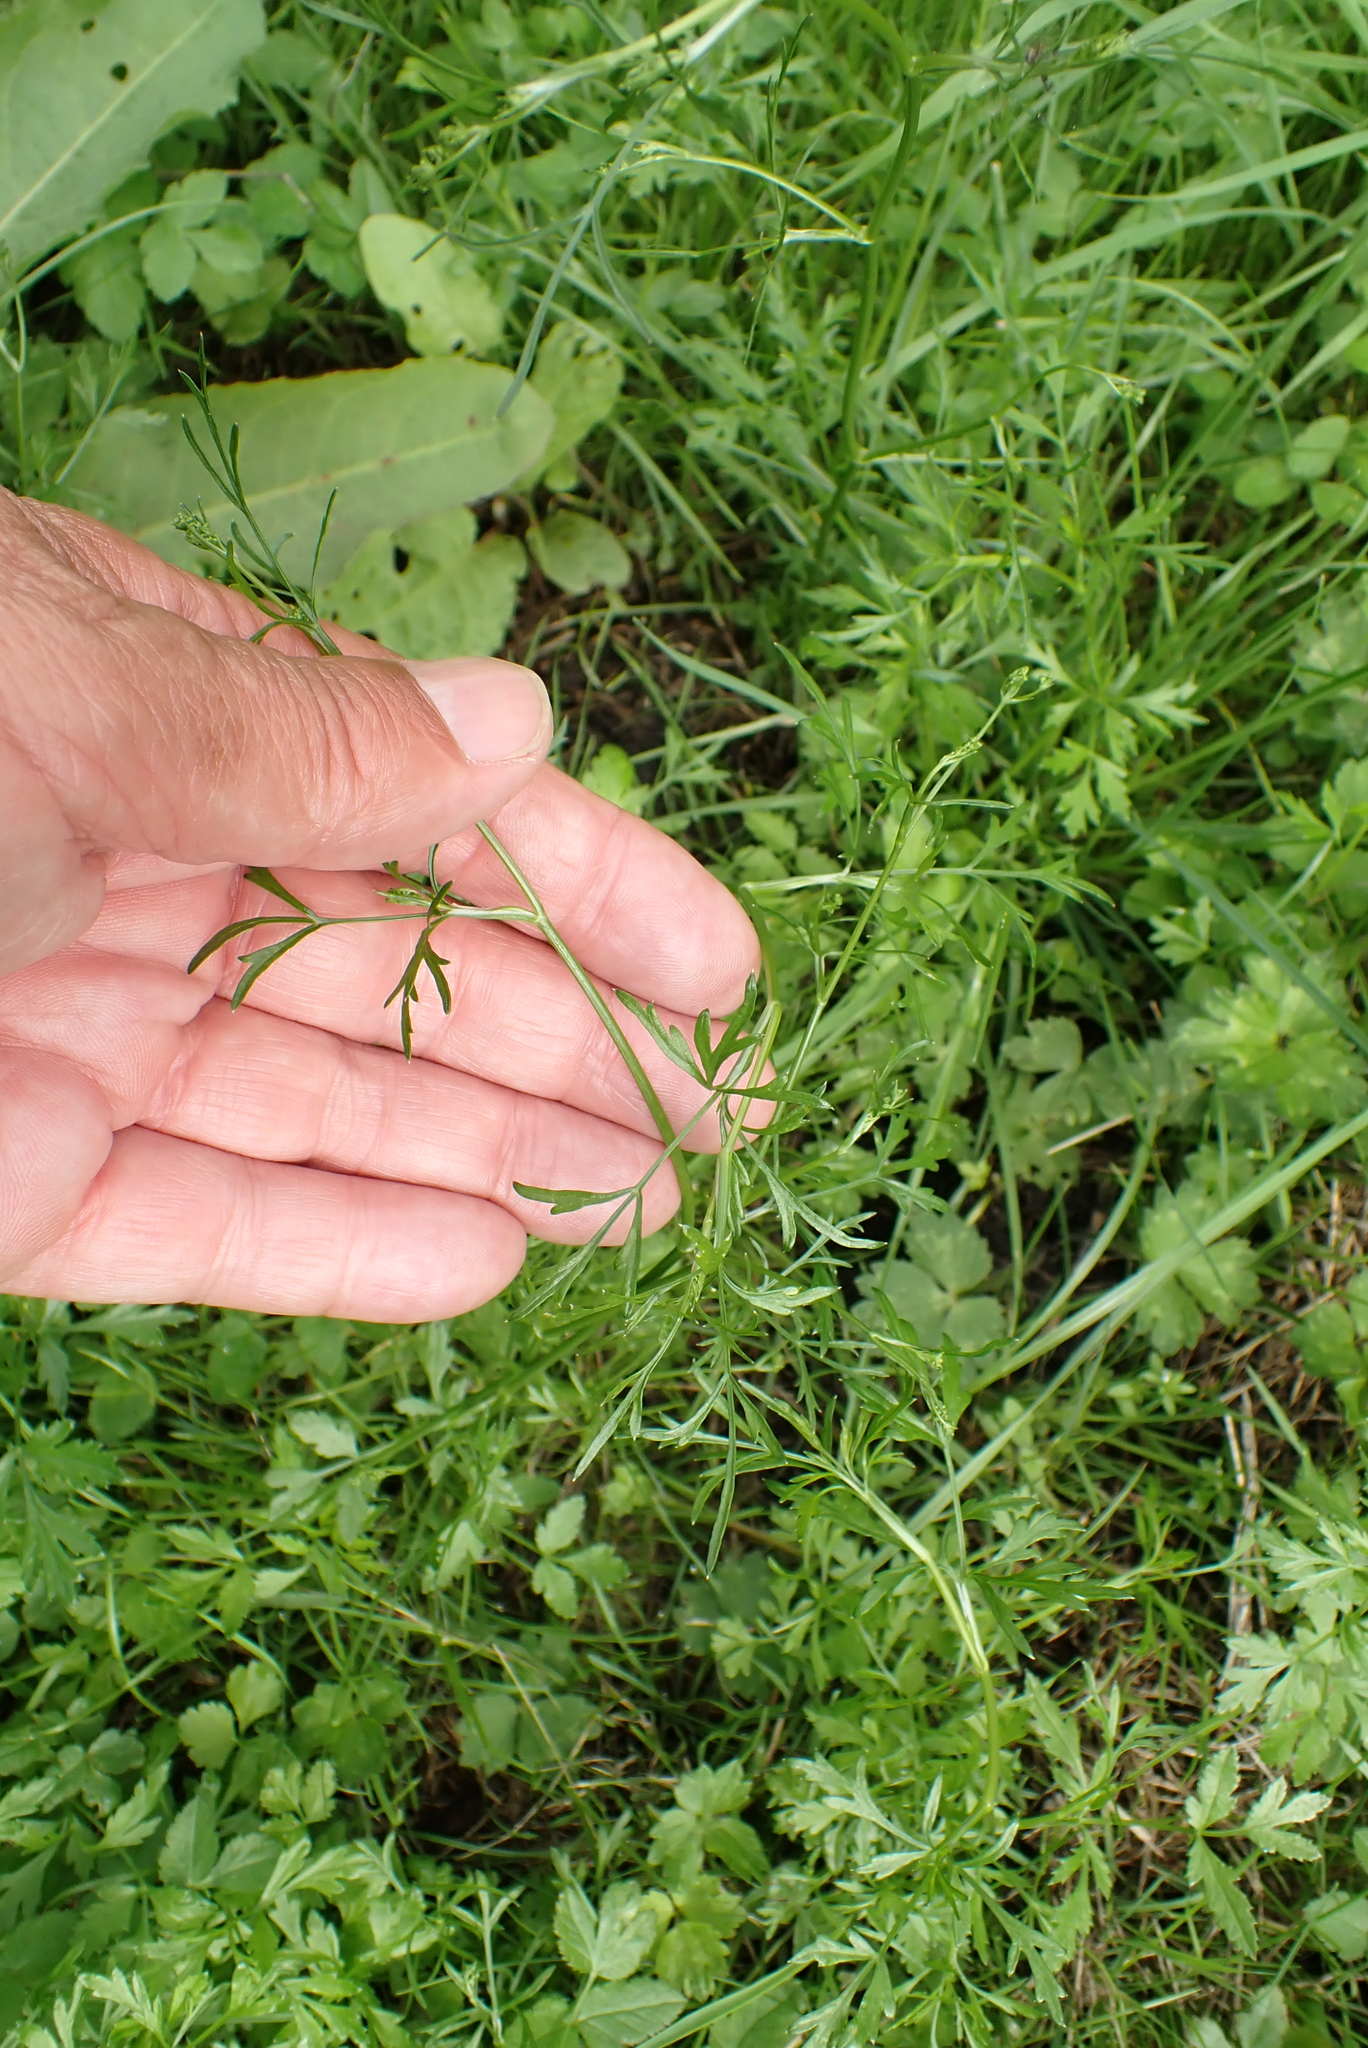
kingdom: Plantae
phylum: Tracheophyta
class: Magnoliopsida
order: Apiales
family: Apiaceae
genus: Sison
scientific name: Sison amomum
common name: Stone-parsley
